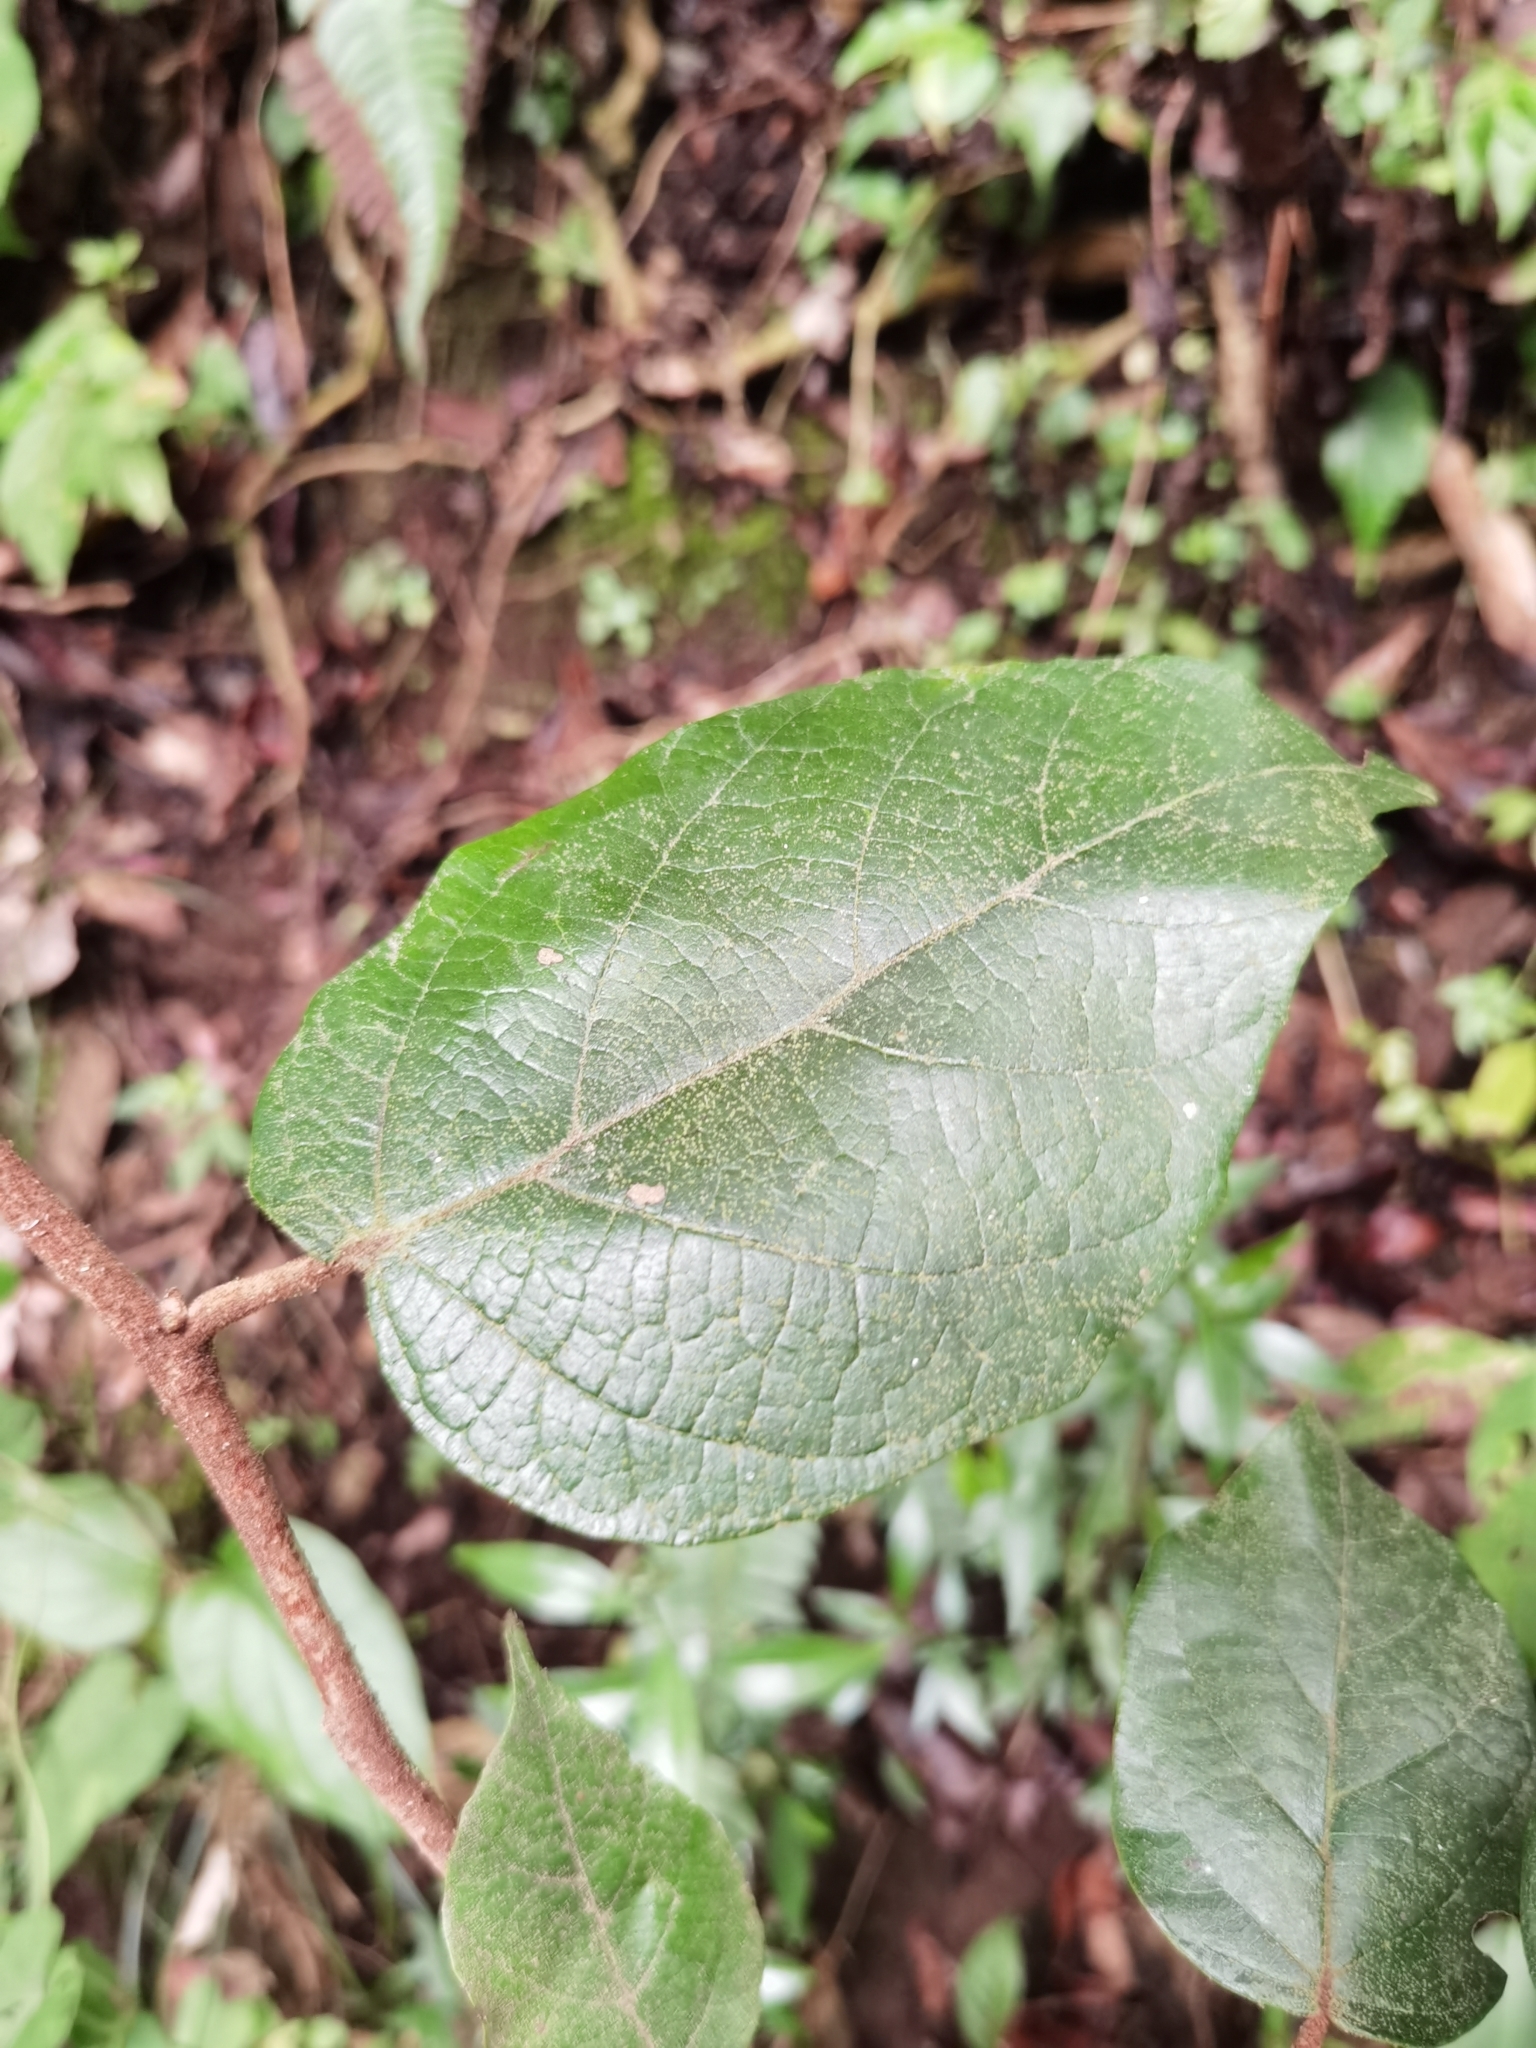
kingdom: Plantae
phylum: Tracheophyta
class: Magnoliopsida
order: Saxifragales
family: Hamamelidaceae
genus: Molinadendron
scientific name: Molinadendron guatemalense
